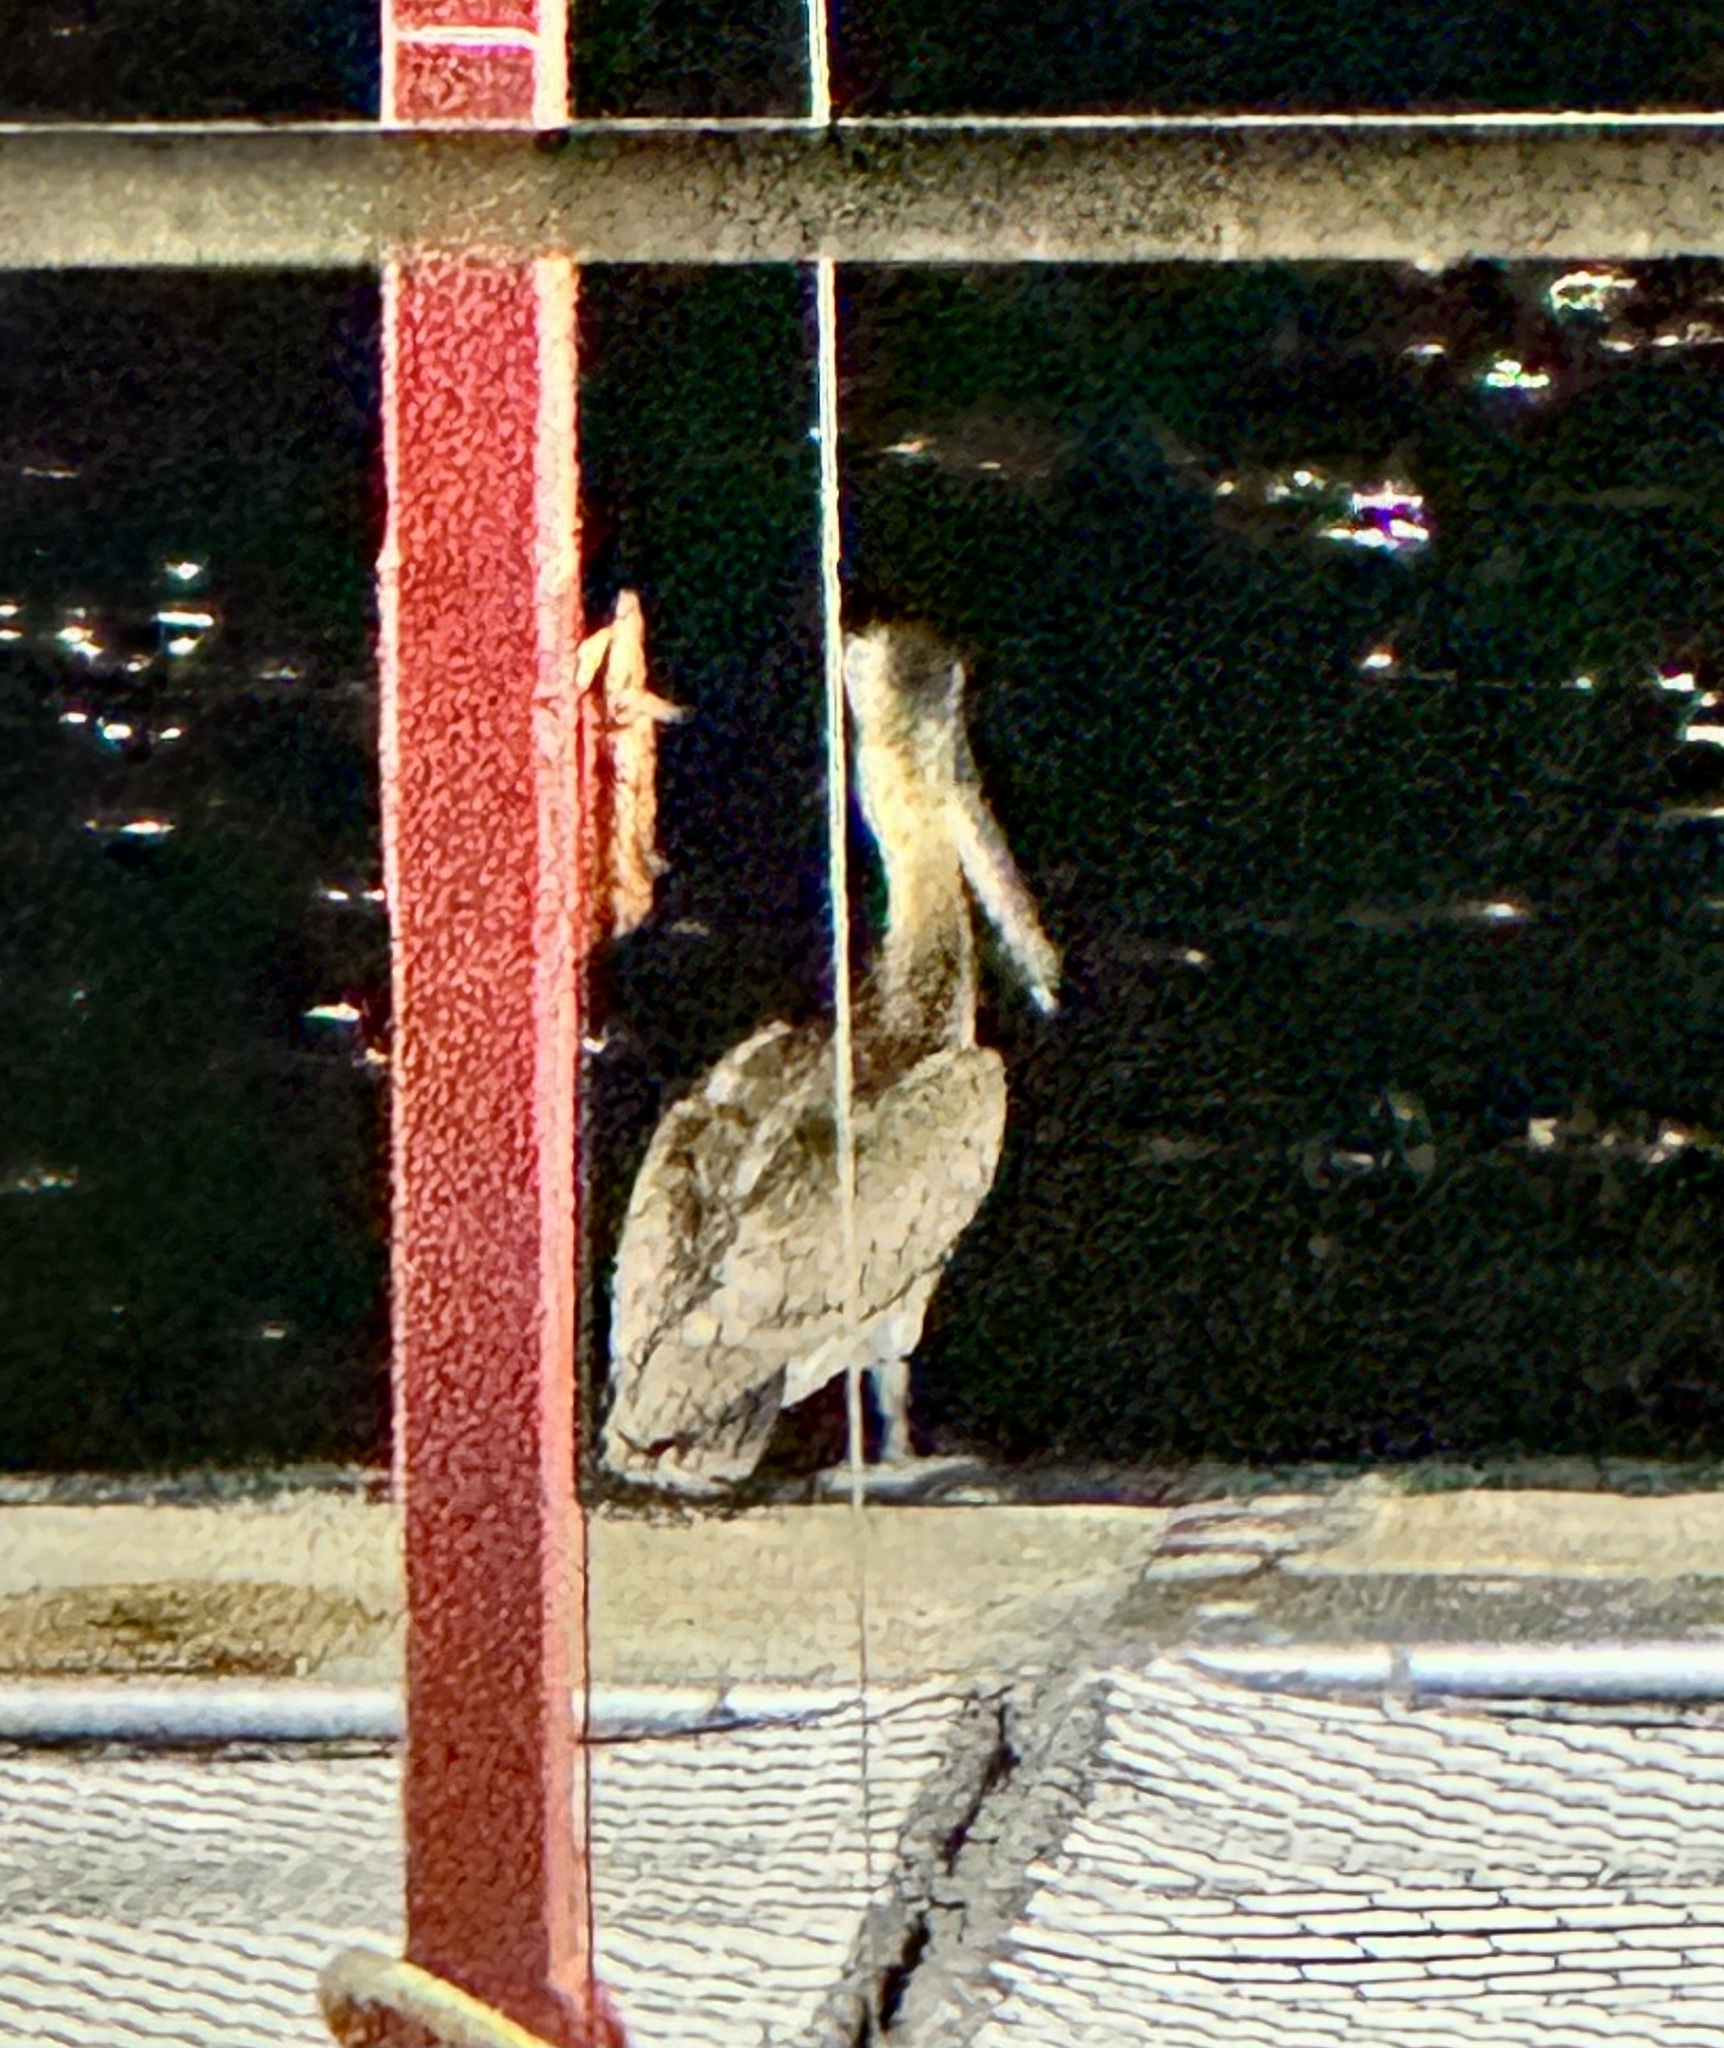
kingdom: Animalia
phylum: Chordata
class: Aves
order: Pelecaniformes
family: Pelecanidae
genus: Pelecanus
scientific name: Pelecanus occidentalis
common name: Brown pelican
